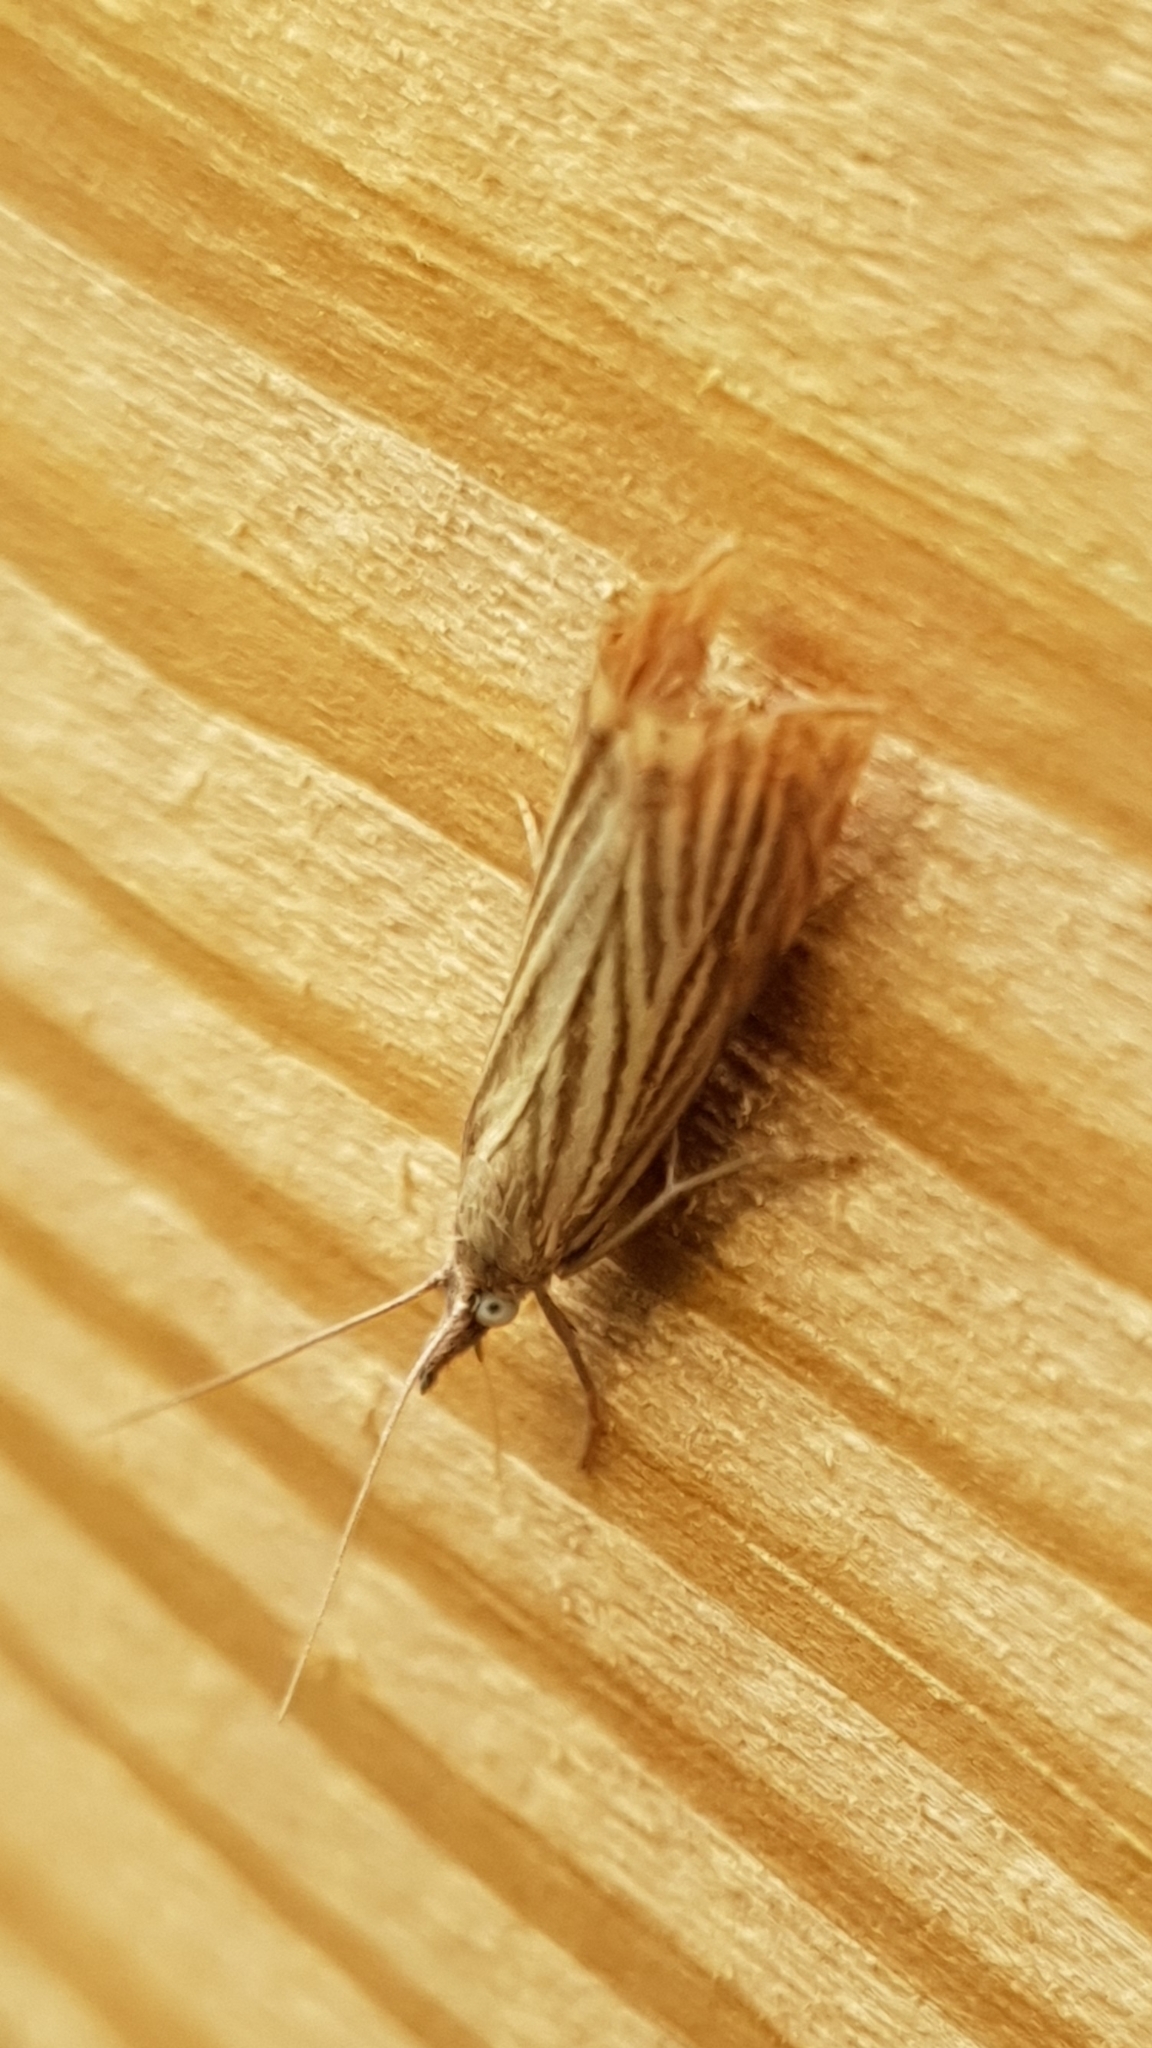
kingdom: Animalia
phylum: Arthropoda
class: Insecta
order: Lepidoptera
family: Crambidae
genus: Chrysoteuchia
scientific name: Chrysoteuchia culmella
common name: Garden grass-veneer
